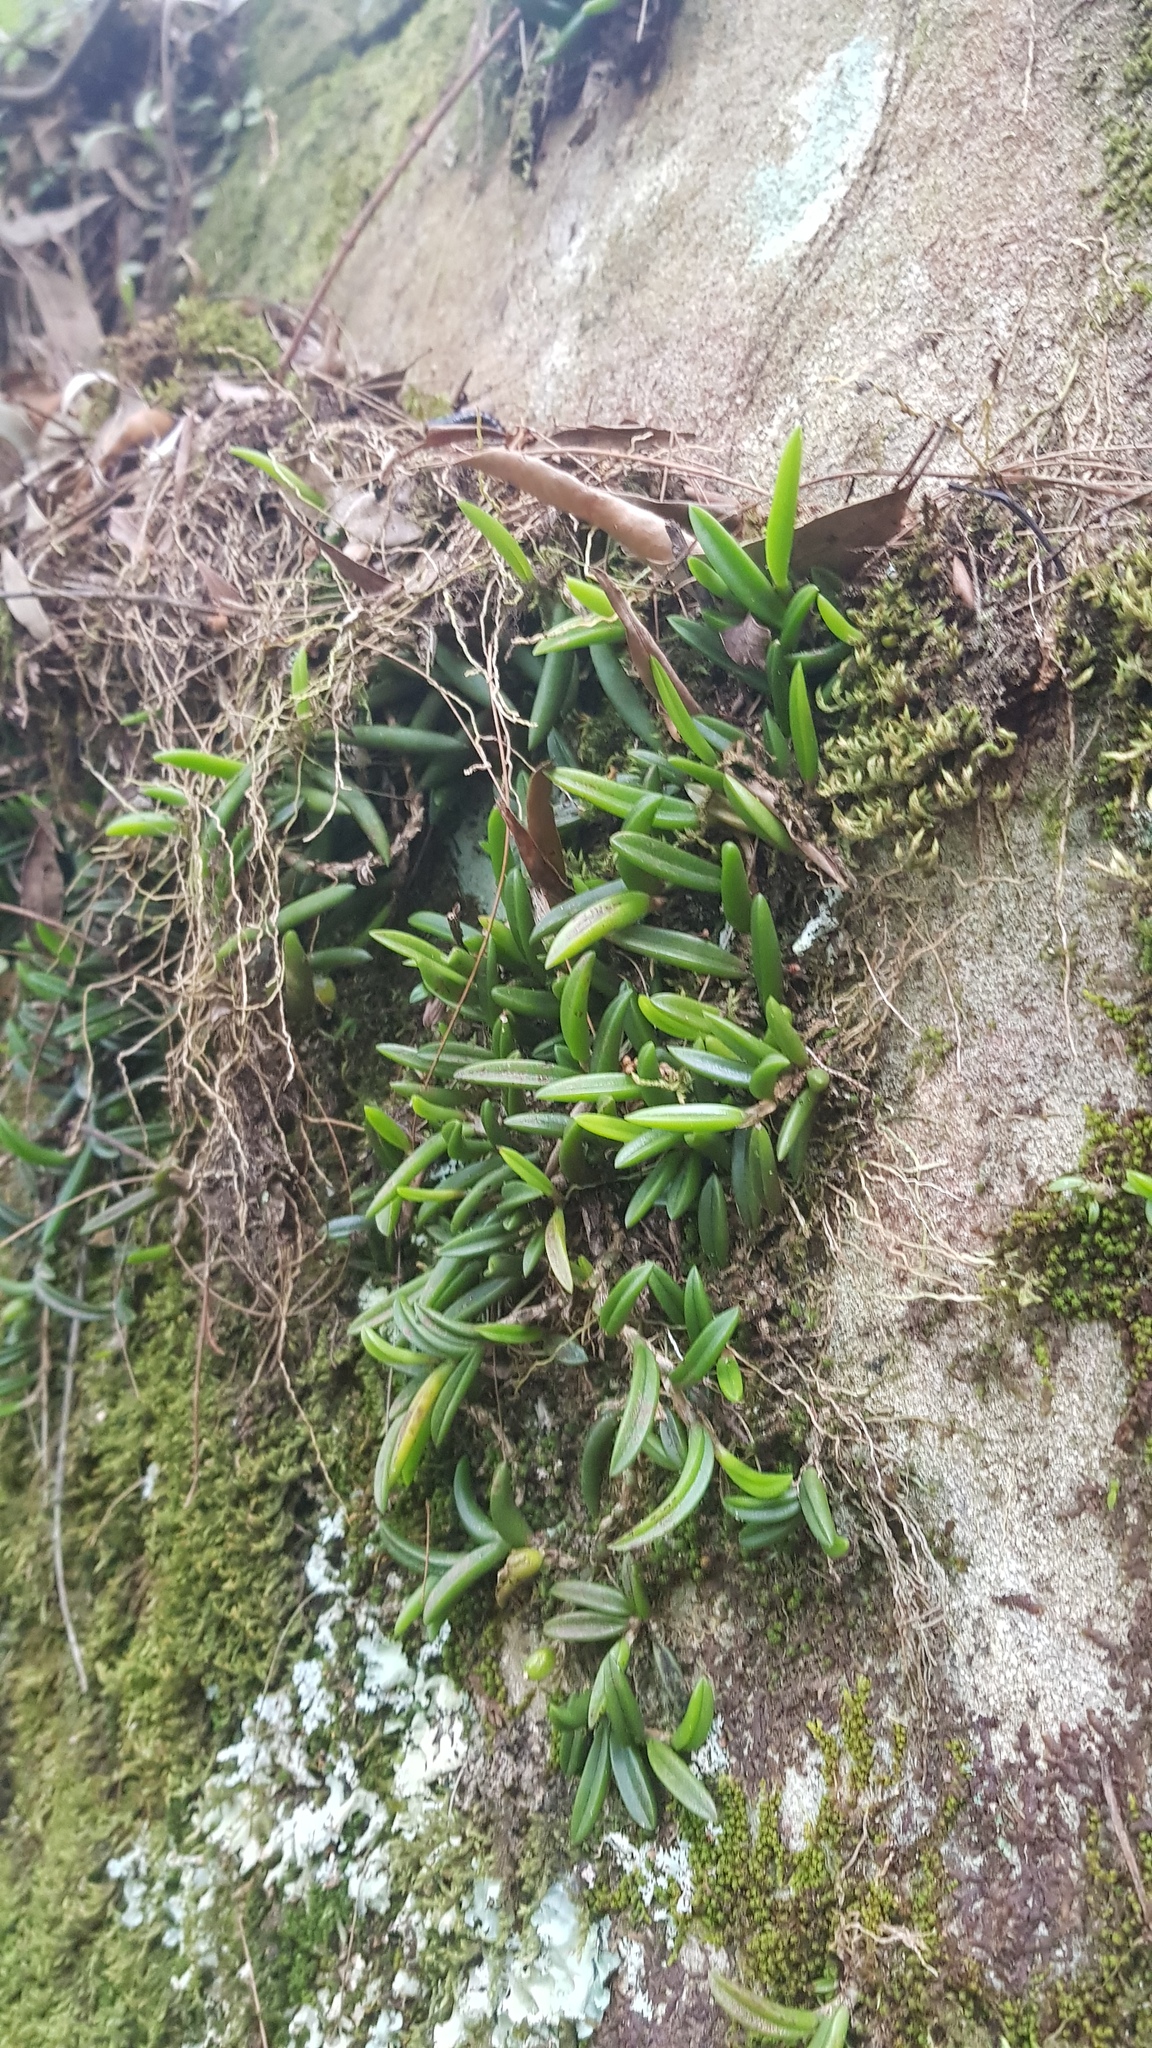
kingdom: Plantae
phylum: Tracheophyta
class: Liliopsida
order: Asparagales
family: Orchidaceae
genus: Bulbophyllum
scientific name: Bulbophyllum shepherdii
